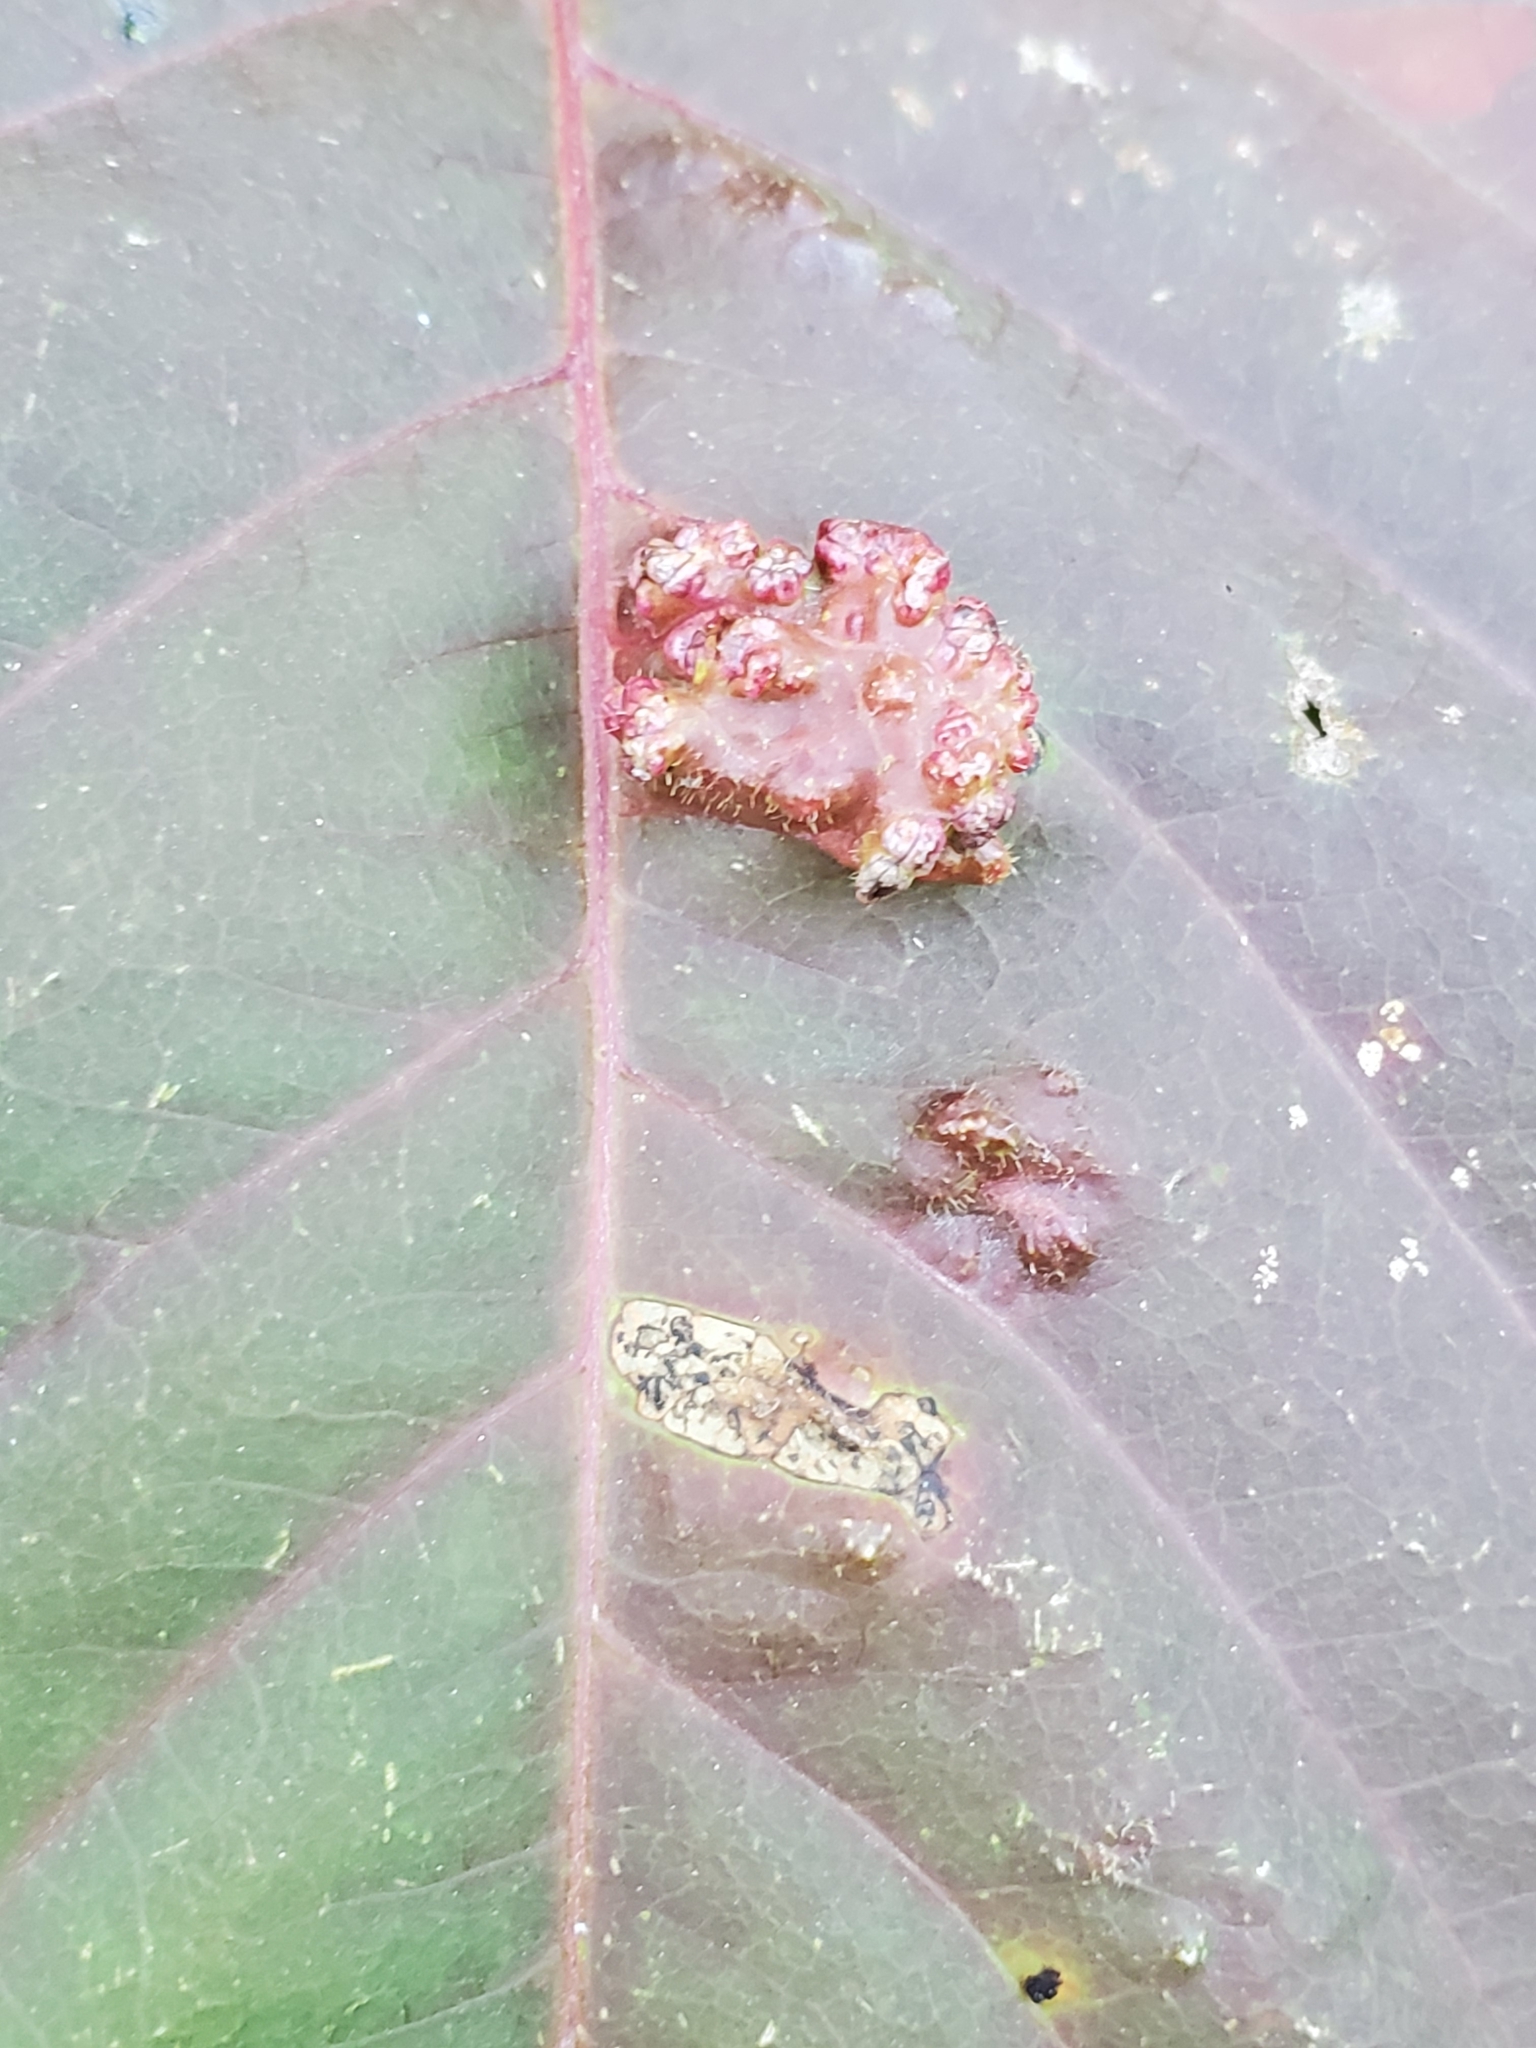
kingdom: Animalia
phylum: Arthropoda
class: Arachnida
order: Trombidiformes
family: Eriophyidae
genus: Aculops
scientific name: Aculops
